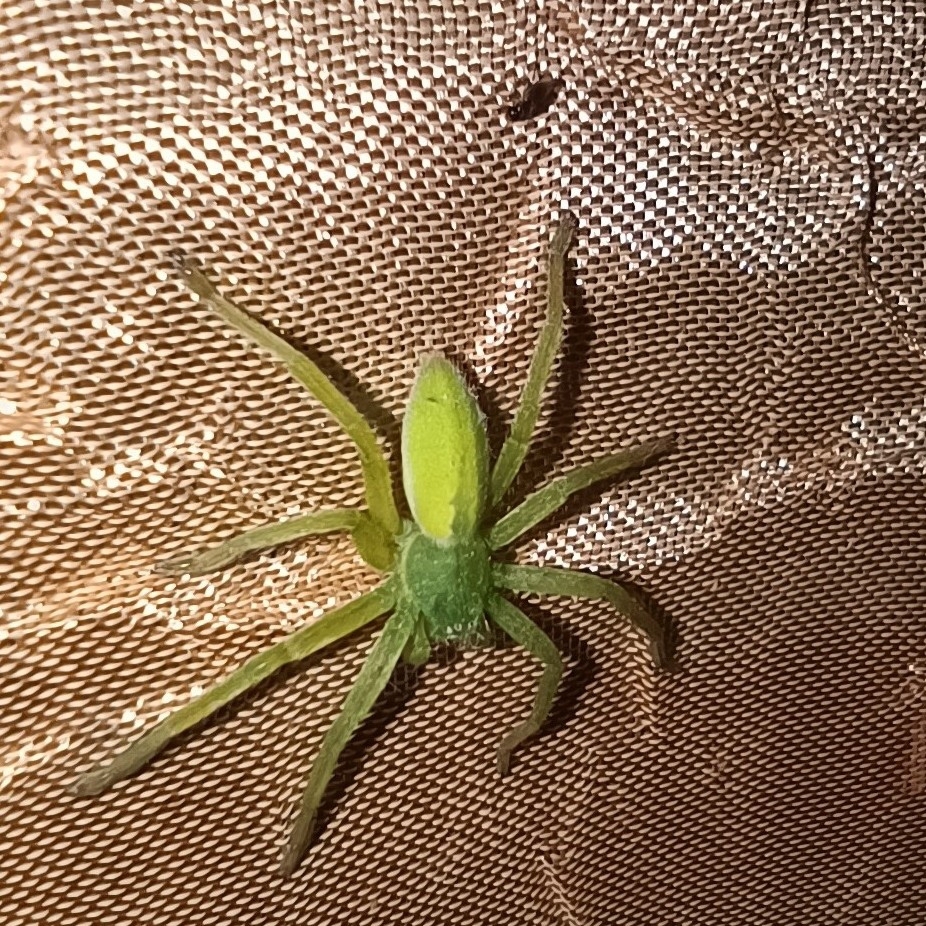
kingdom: Animalia
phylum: Arthropoda
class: Arachnida
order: Araneae
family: Sparassidae
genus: Micrommata
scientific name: Micrommata virescens
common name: Green spider
